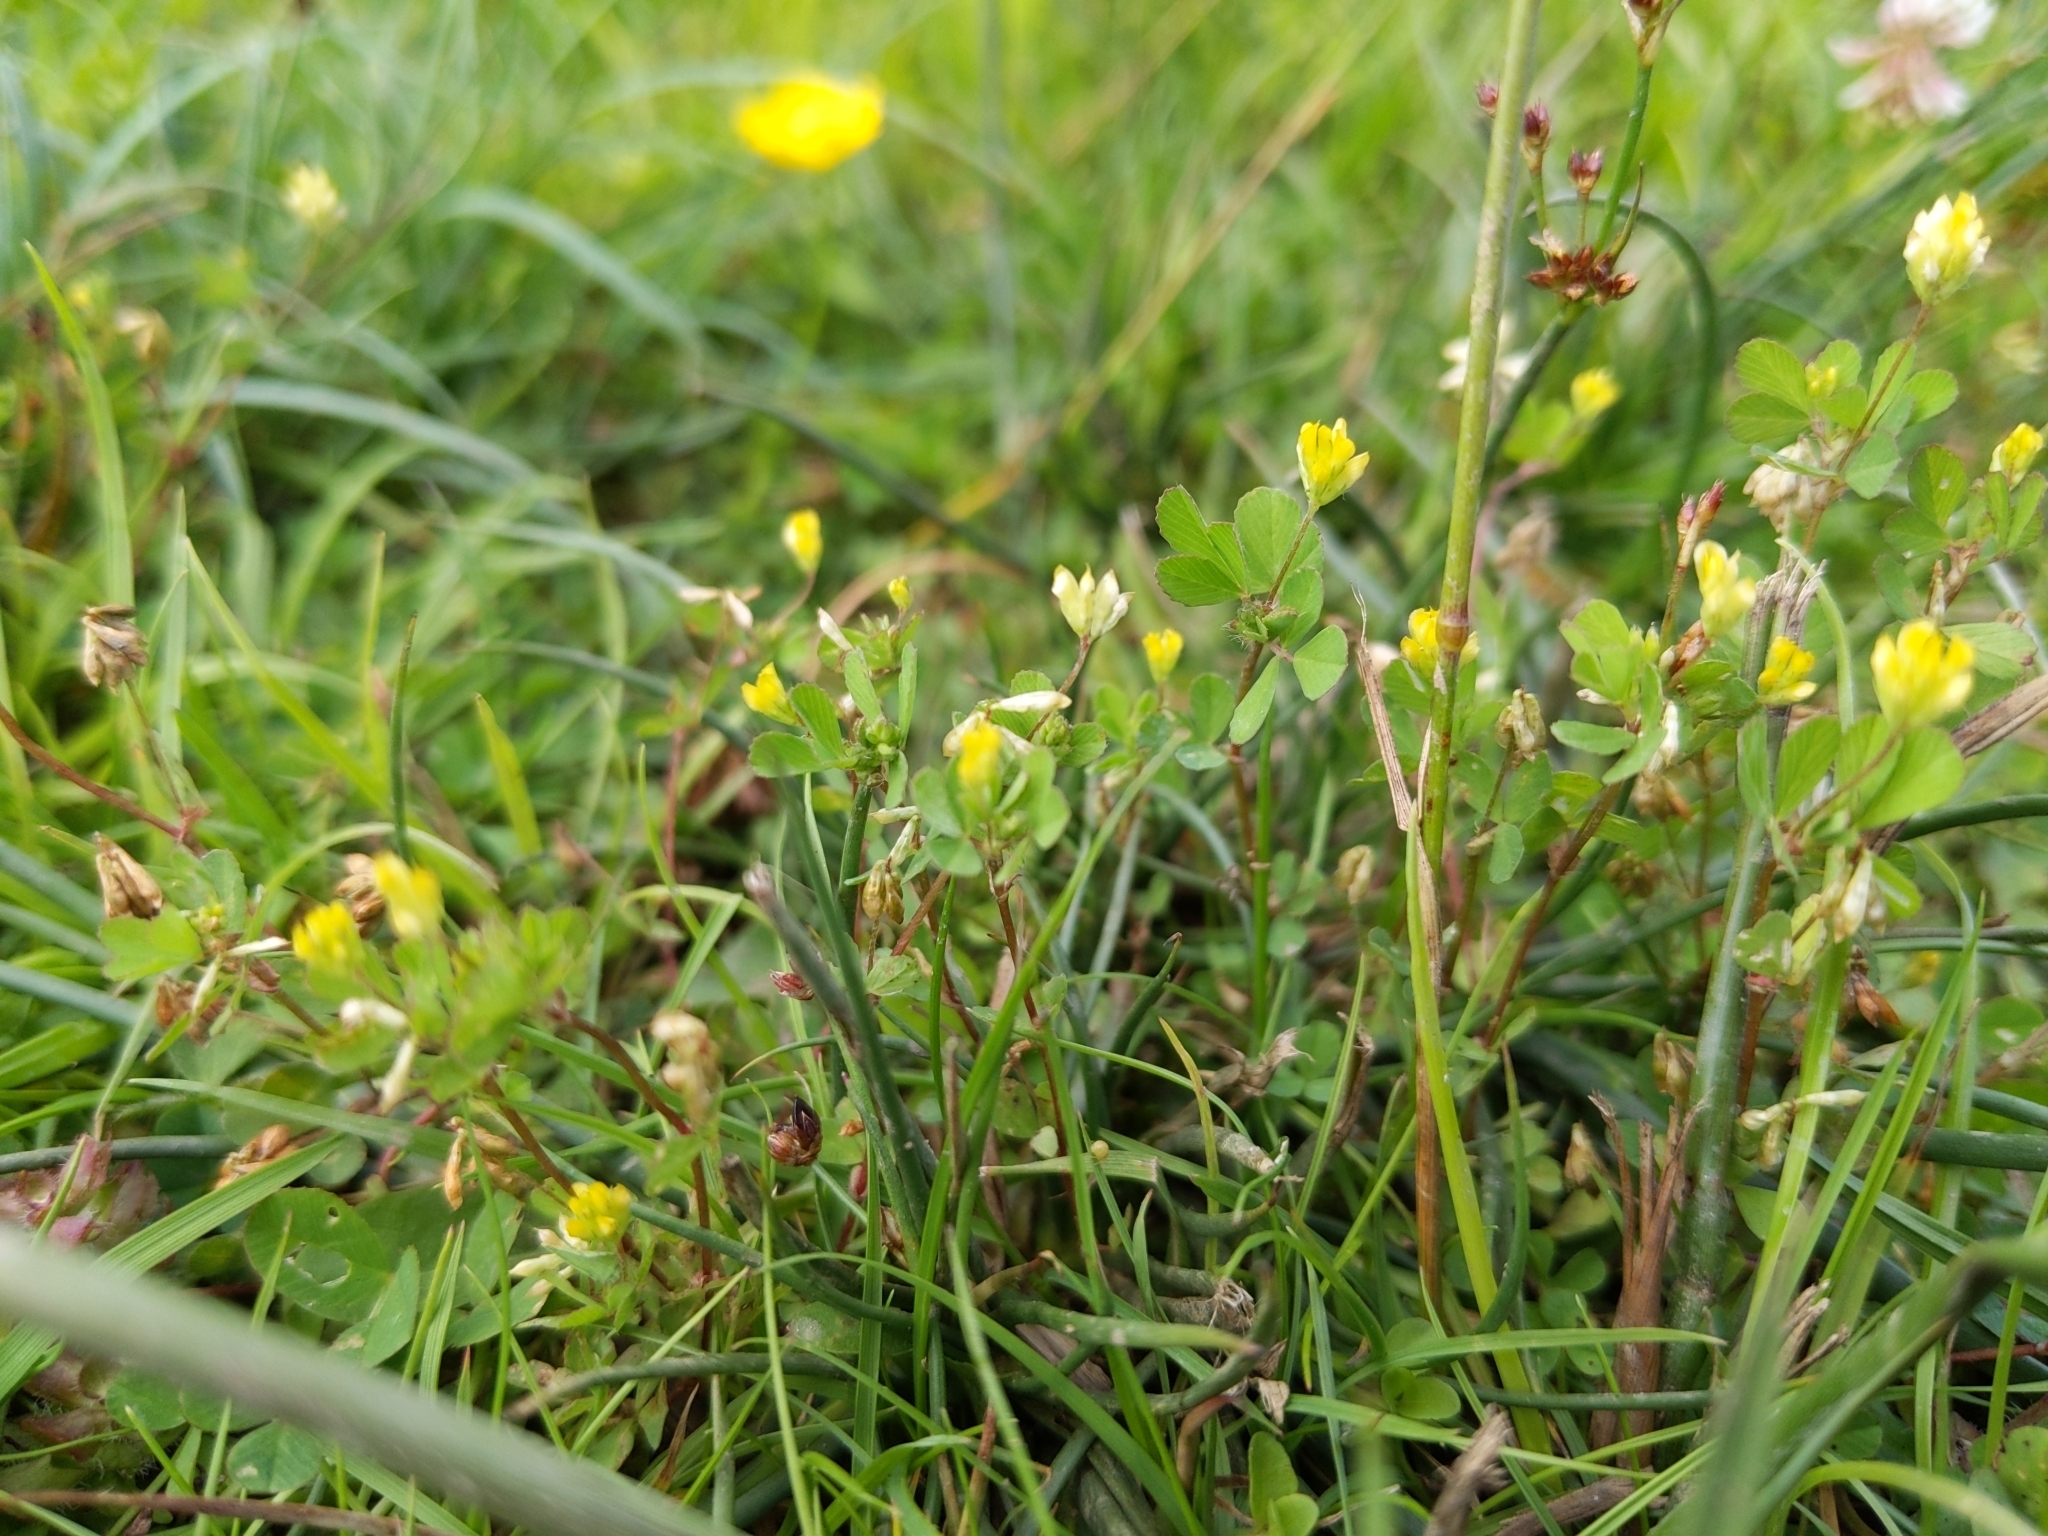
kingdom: Plantae
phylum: Tracheophyta
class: Magnoliopsida
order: Fabales
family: Fabaceae
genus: Trifolium
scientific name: Trifolium dubium
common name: Suckling clover
